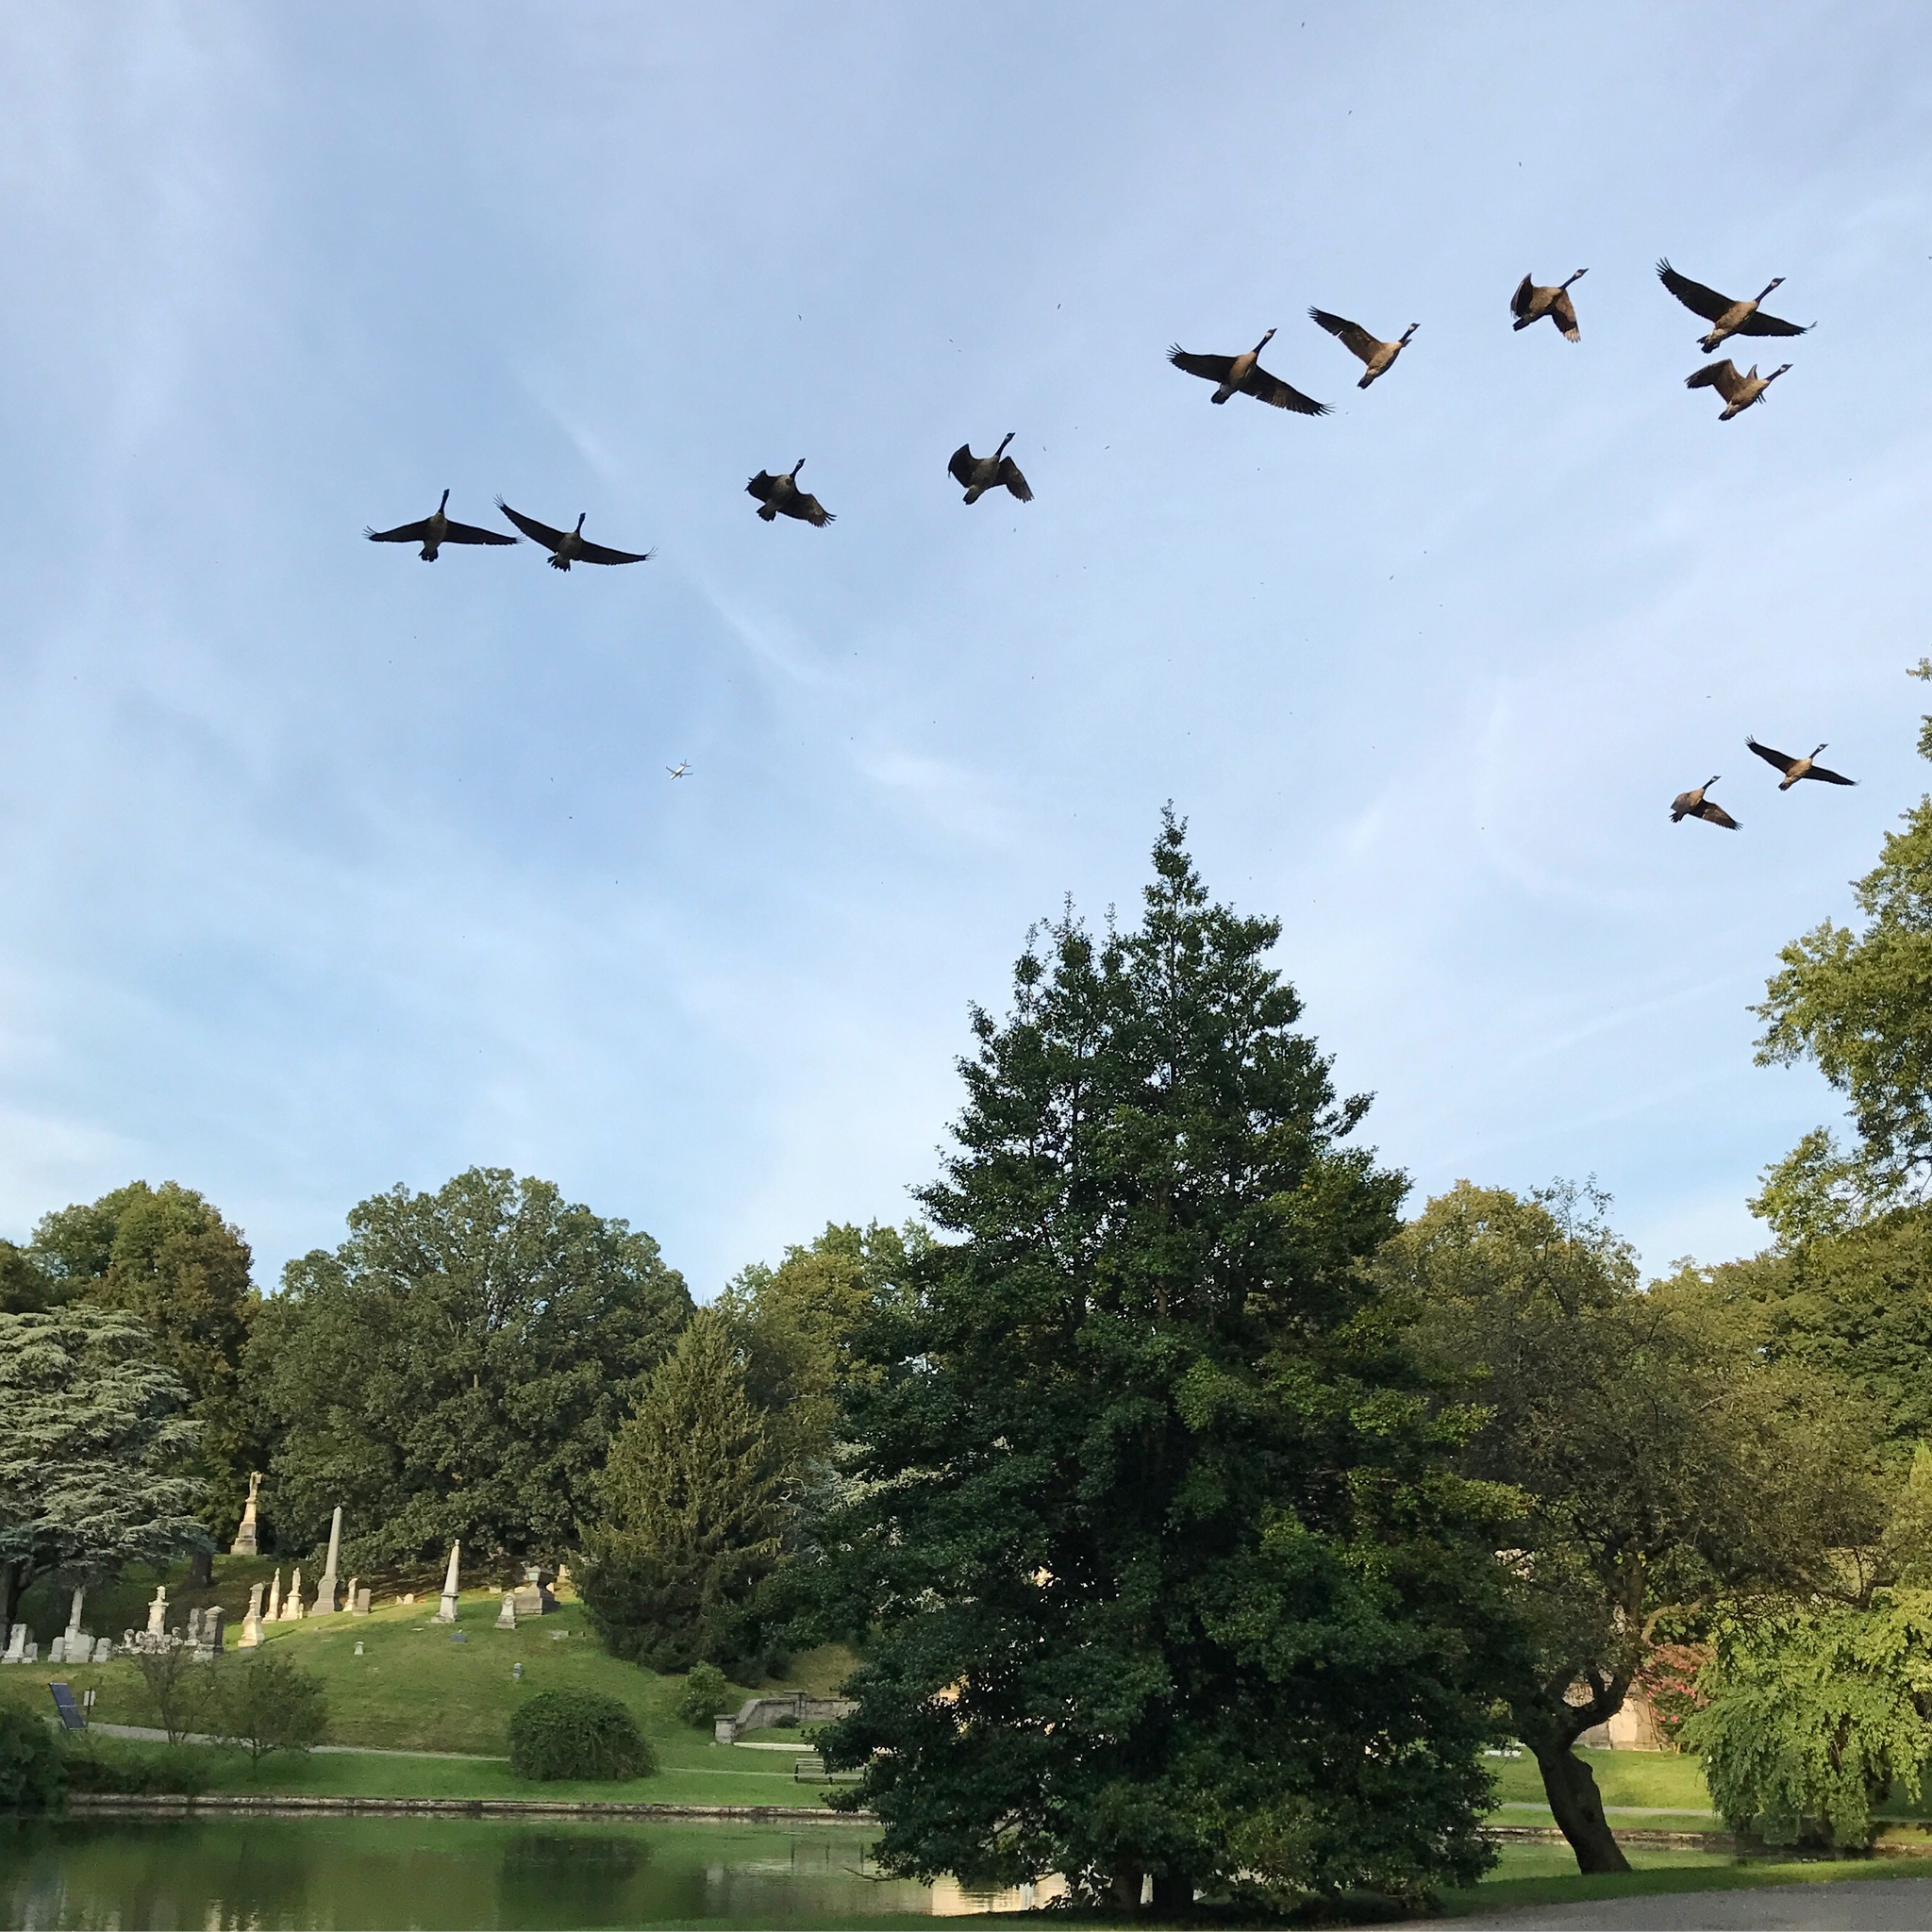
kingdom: Animalia
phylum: Chordata
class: Aves
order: Anseriformes
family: Anatidae
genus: Branta
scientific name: Branta canadensis
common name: Canada goose
